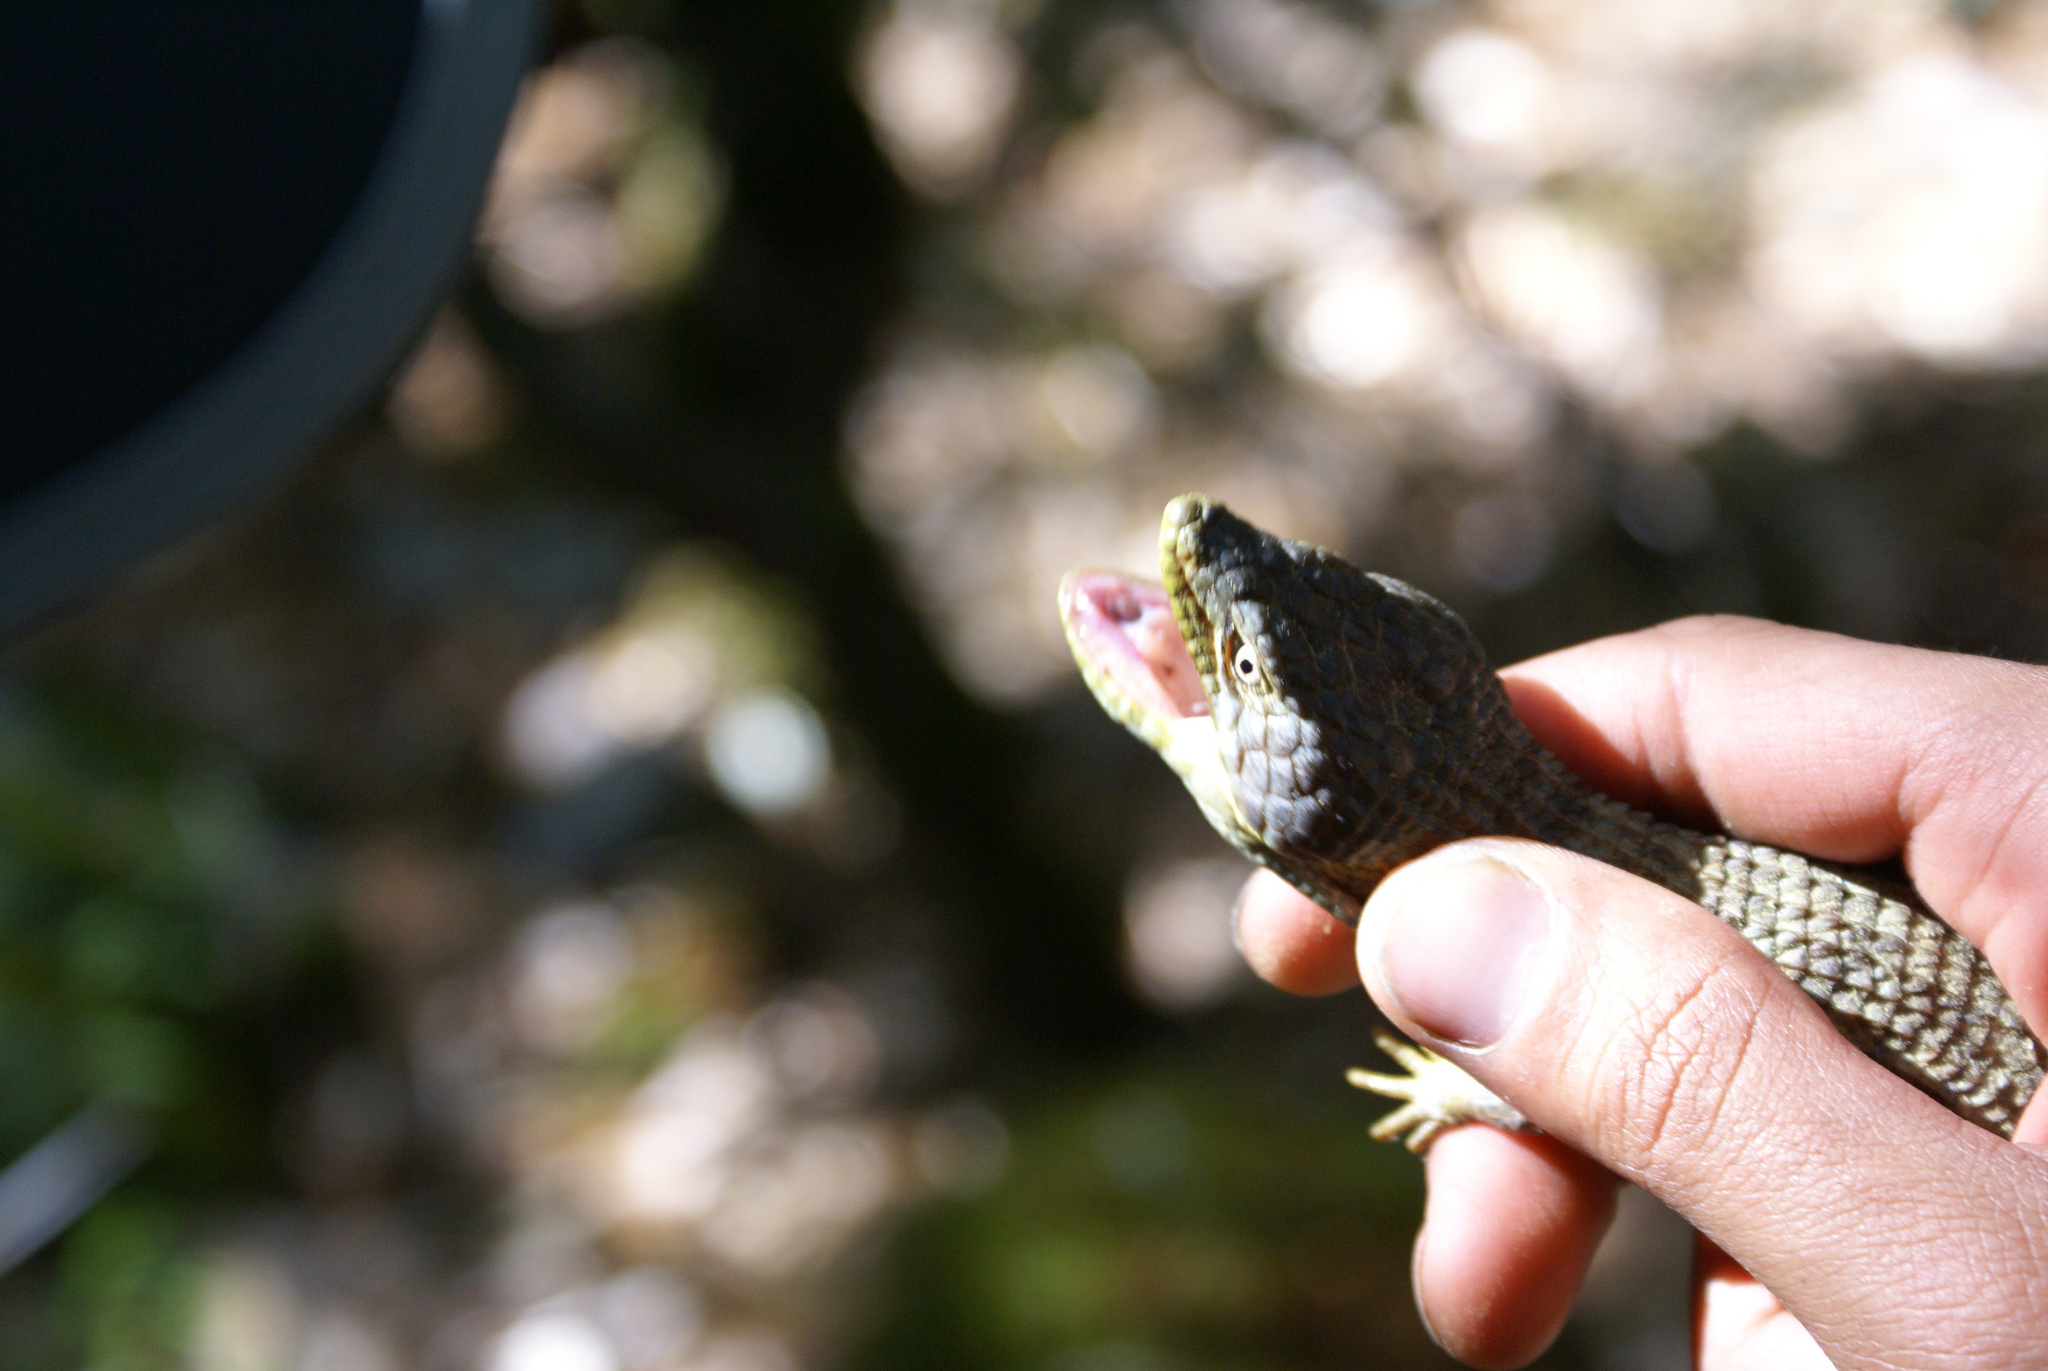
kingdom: Animalia
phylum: Chordata
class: Squamata
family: Anguidae
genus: Elgaria
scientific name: Elgaria multicarinata
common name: Southern alligator lizard
